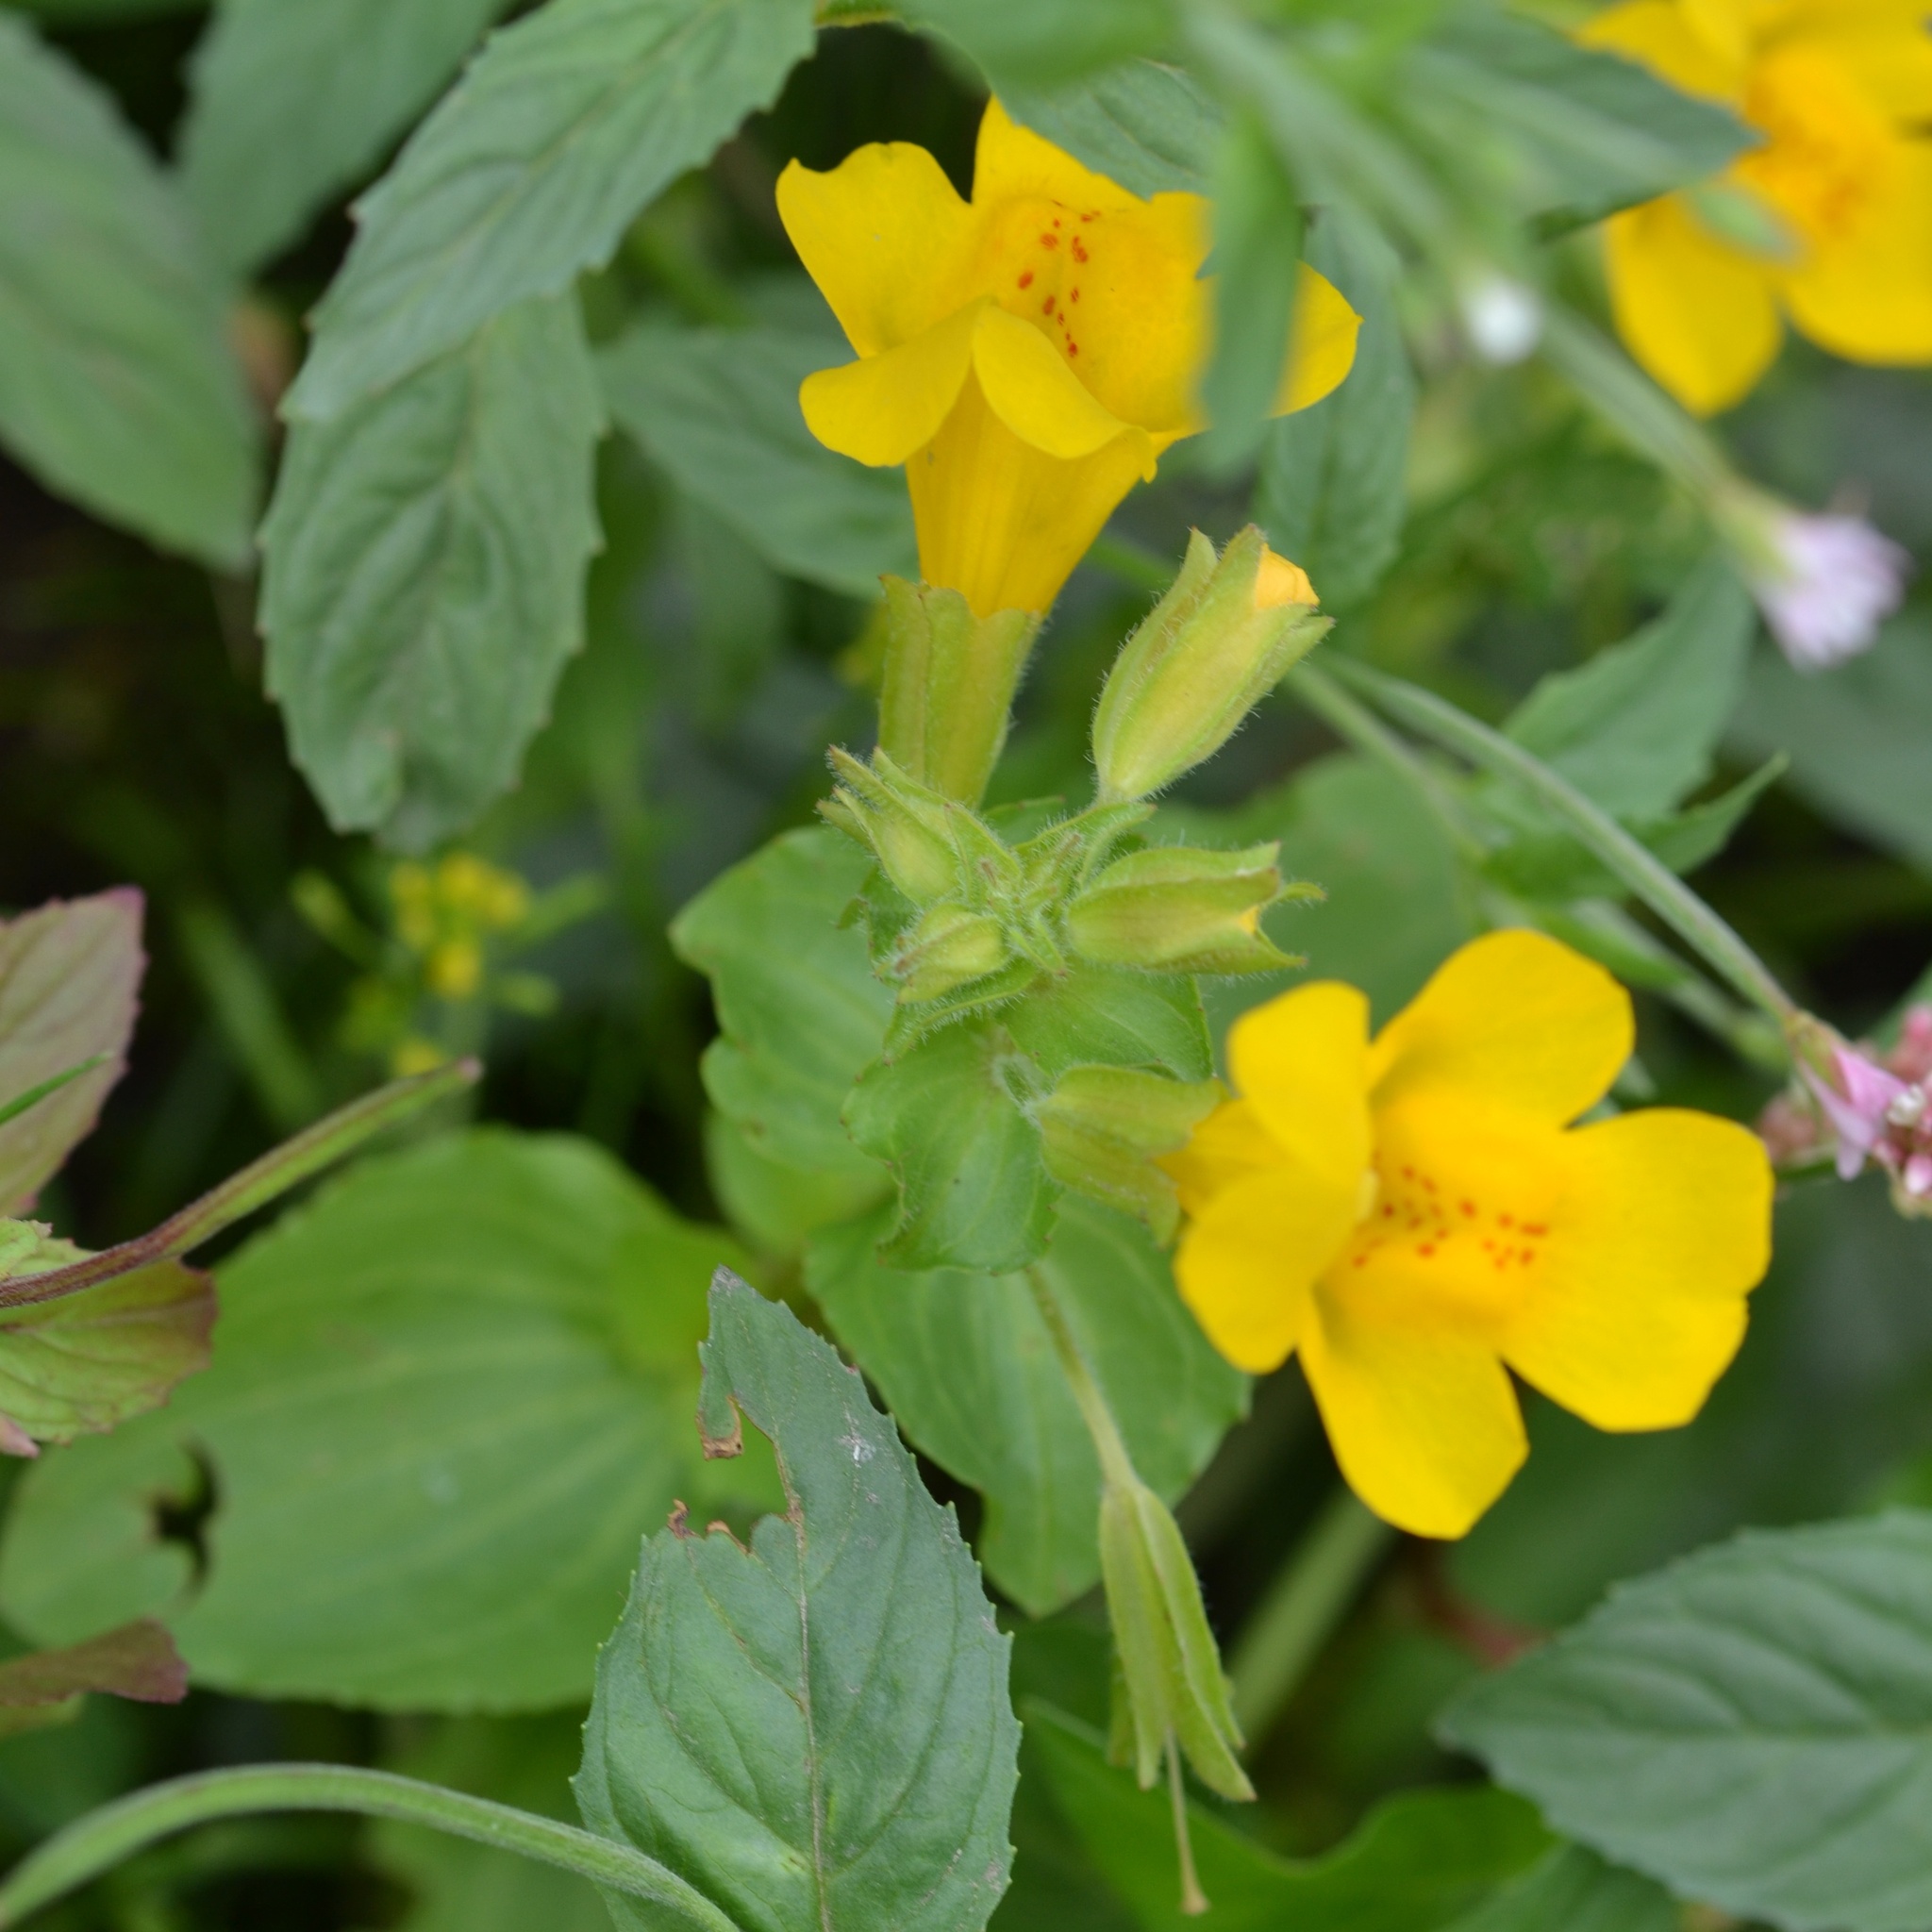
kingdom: Plantae
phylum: Tracheophyta
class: Magnoliopsida
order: Lamiales
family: Phrymaceae
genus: Erythranthe
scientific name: Erythranthe guttata
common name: Monkeyflower
